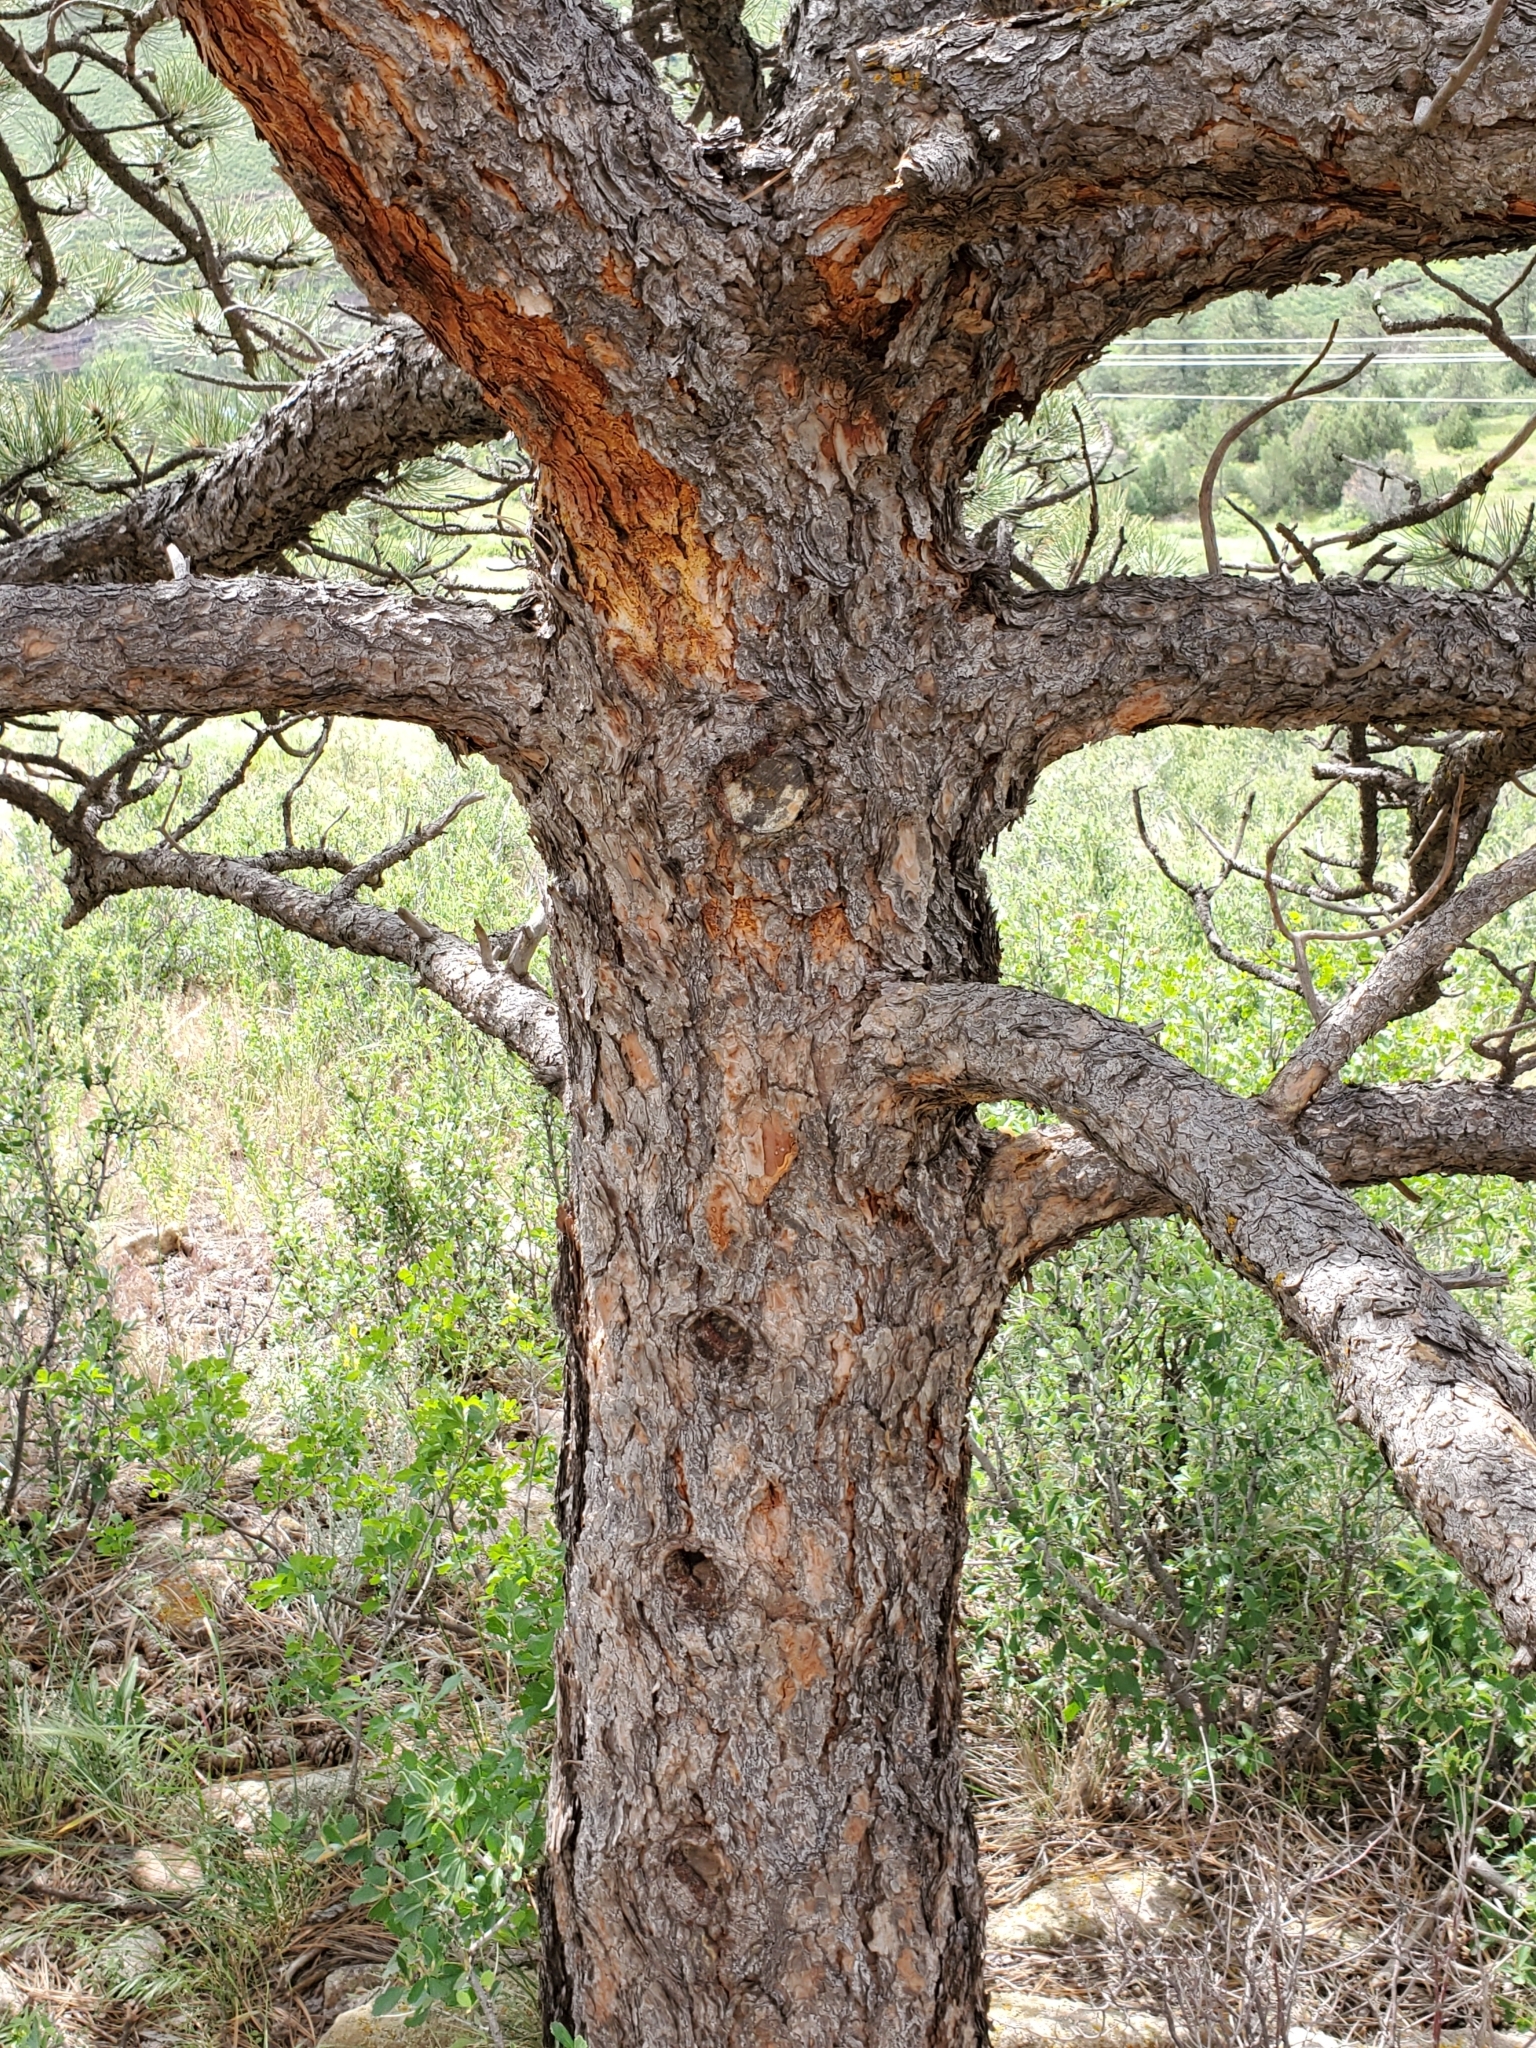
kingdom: Plantae
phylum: Tracheophyta
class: Pinopsida
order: Pinales
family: Pinaceae
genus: Pinus
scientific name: Pinus ponderosa
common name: Western yellow-pine
